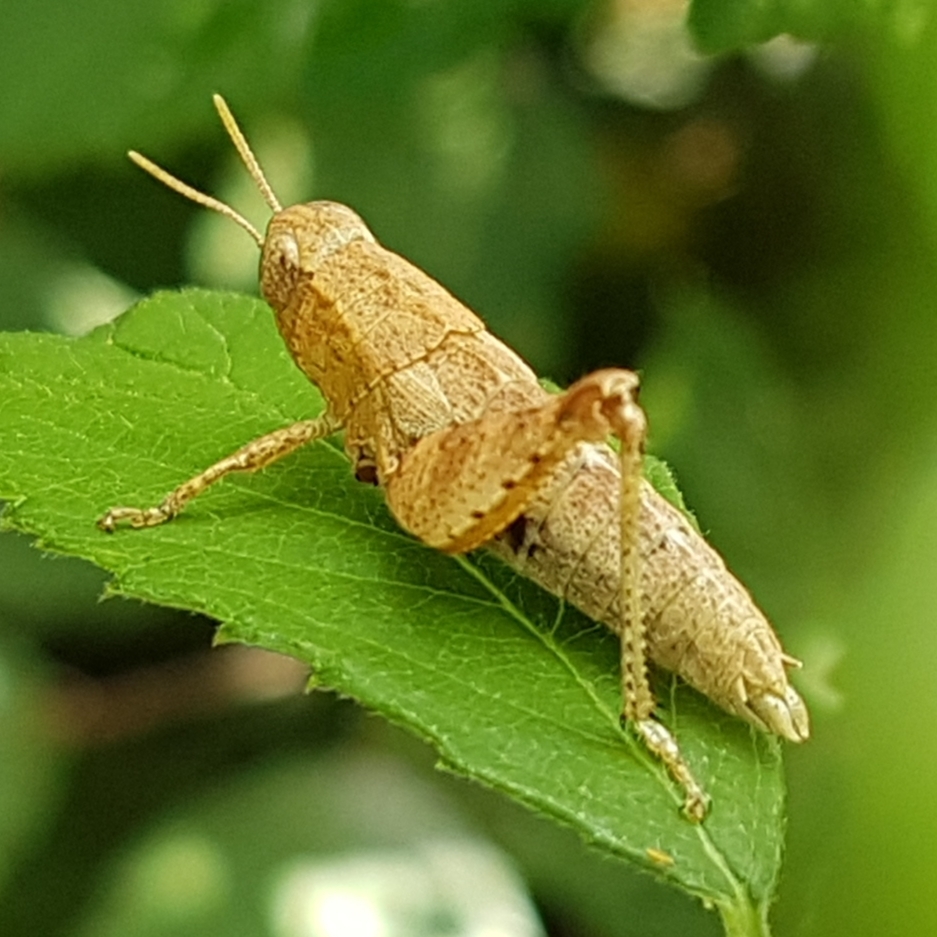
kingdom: Animalia
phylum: Arthropoda
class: Insecta
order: Orthoptera
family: Acrididae
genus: Pezotettix
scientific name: Pezotettix giornae
